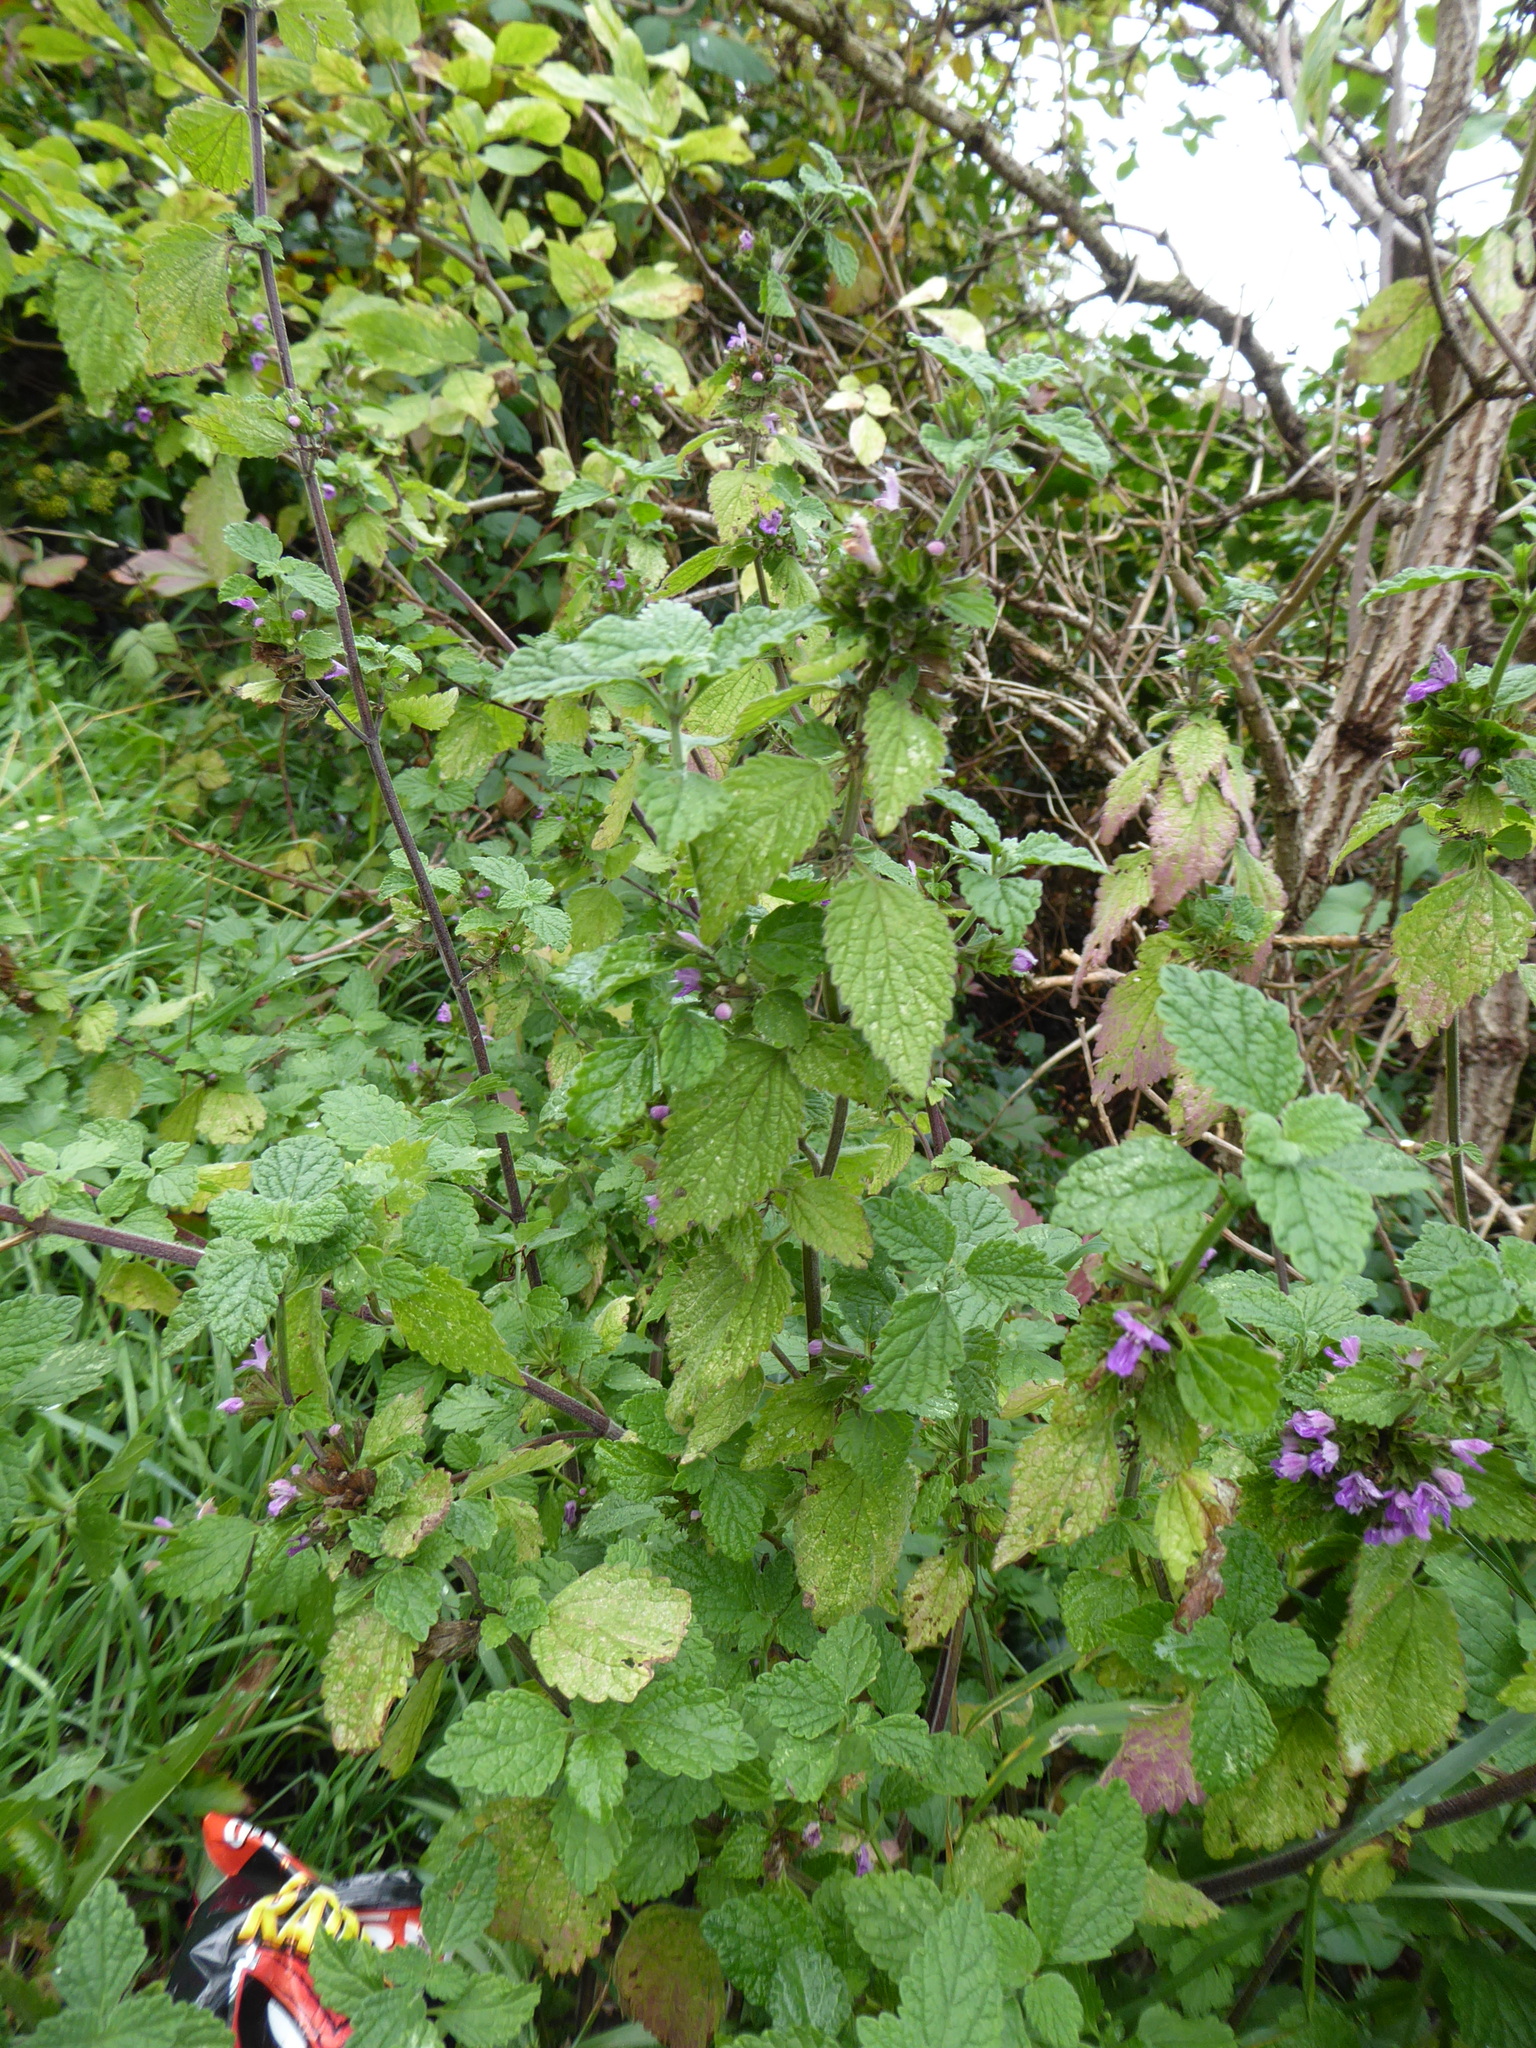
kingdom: Plantae
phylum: Tracheophyta
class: Magnoliopsida
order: Lamiales
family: Lamiaceae
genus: Ballota
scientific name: Ballota nigra
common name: Black horehound
